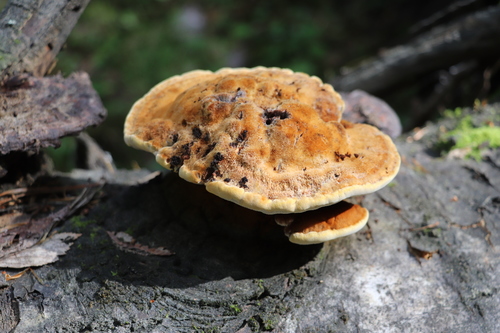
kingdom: Fungi
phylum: Basidiomycota
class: Agaricomycetes
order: Hymenochaetales
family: Hymenochaetaceae
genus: Inocutis
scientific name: Inocutis rheades
